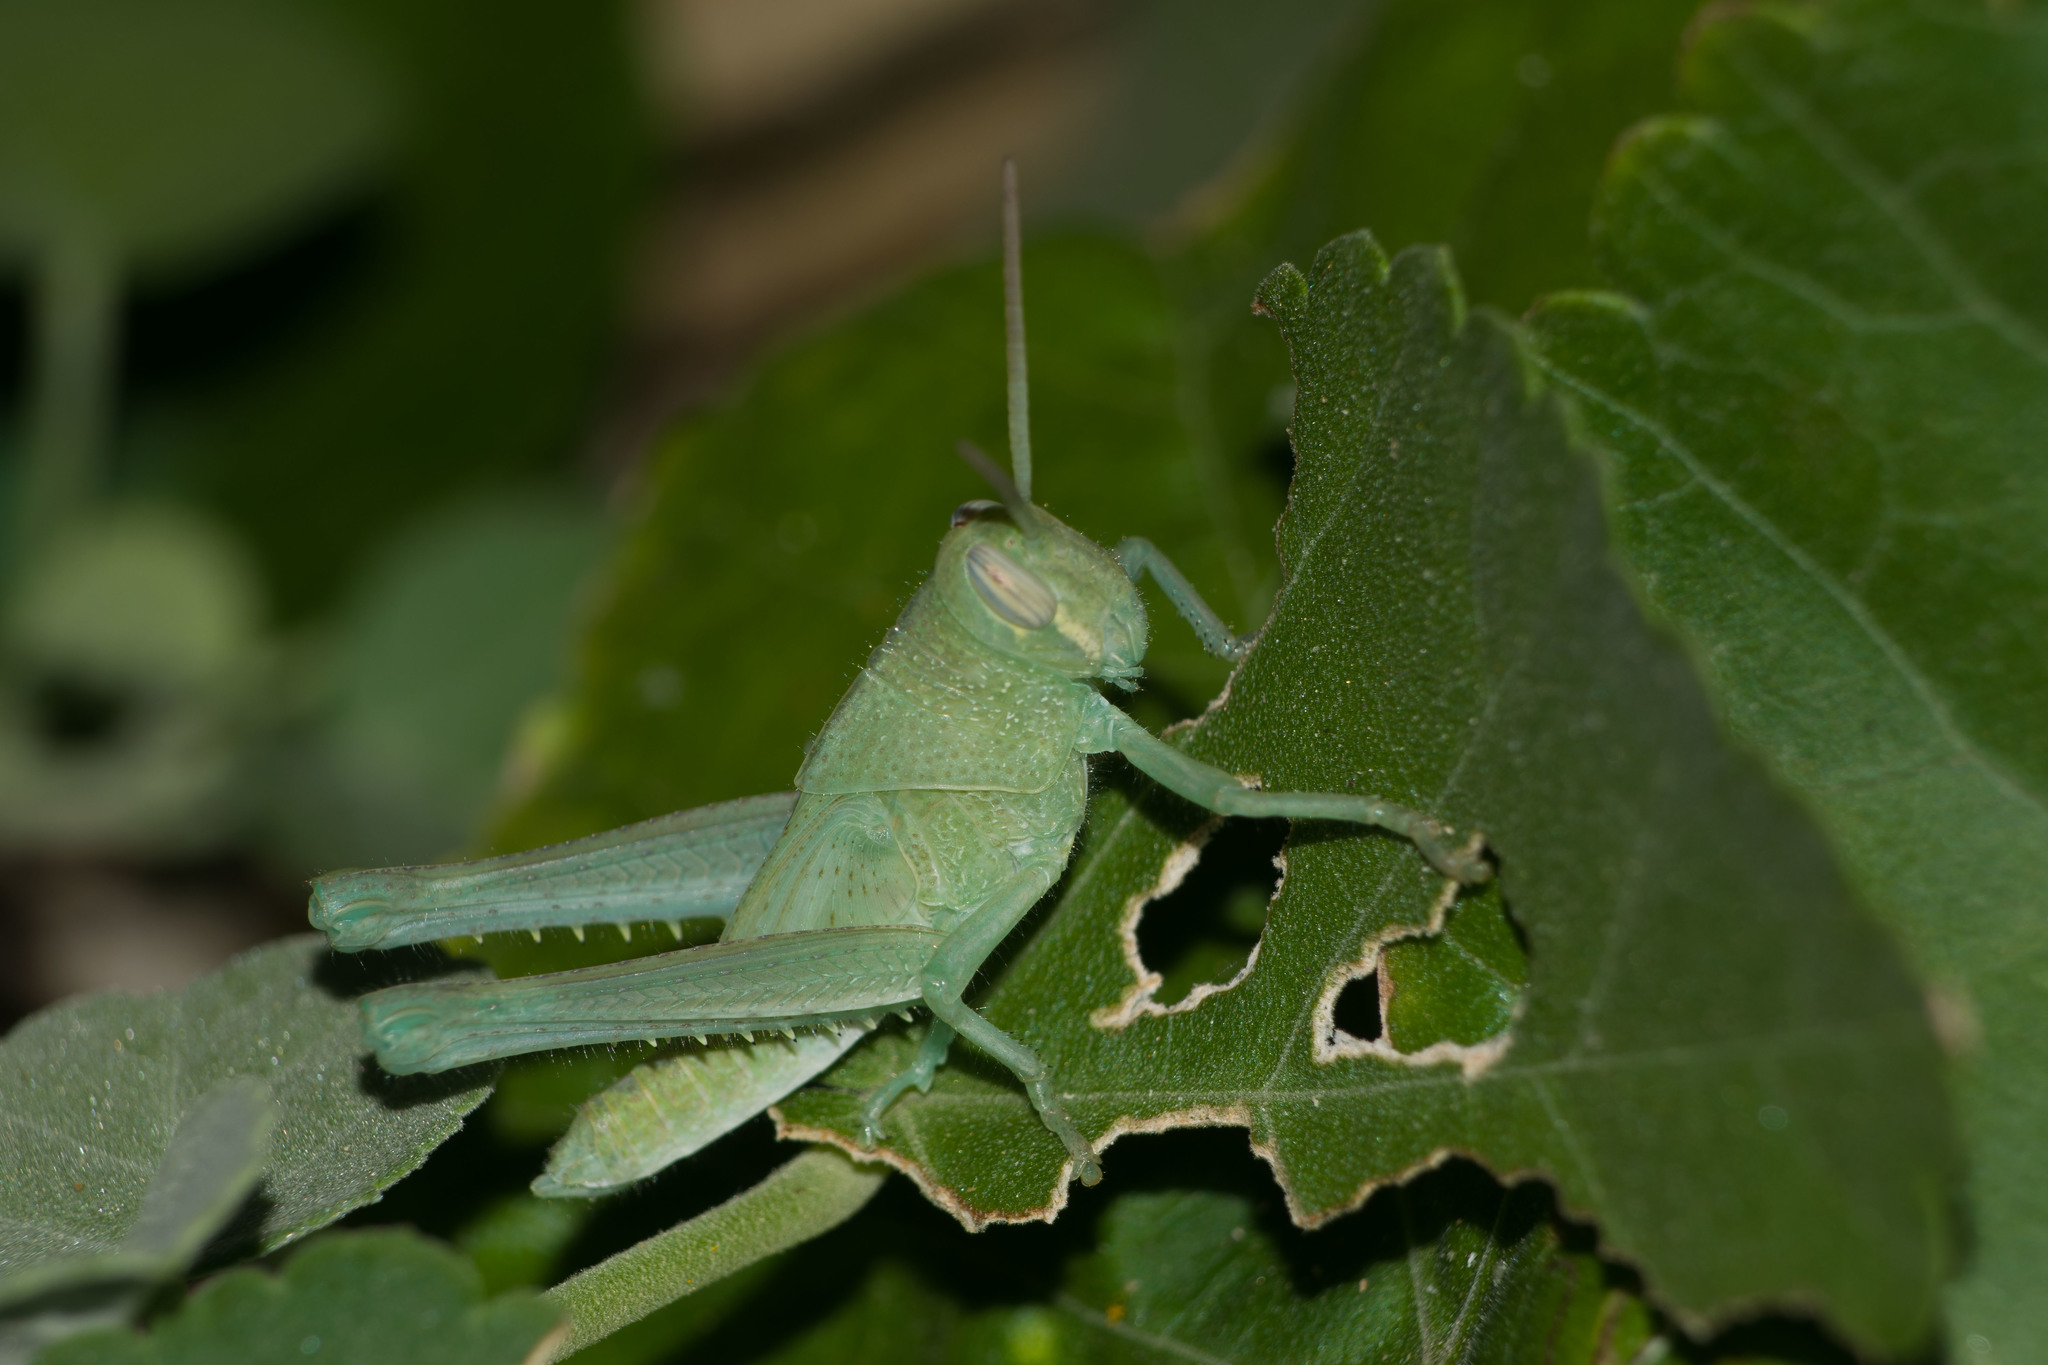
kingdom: Animalia
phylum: Arthropoda
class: Insecta
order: Orthoptera
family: Acrididae
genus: Schistocerca
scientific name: Schistocerca nitens
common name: Vagrant grasshopper
